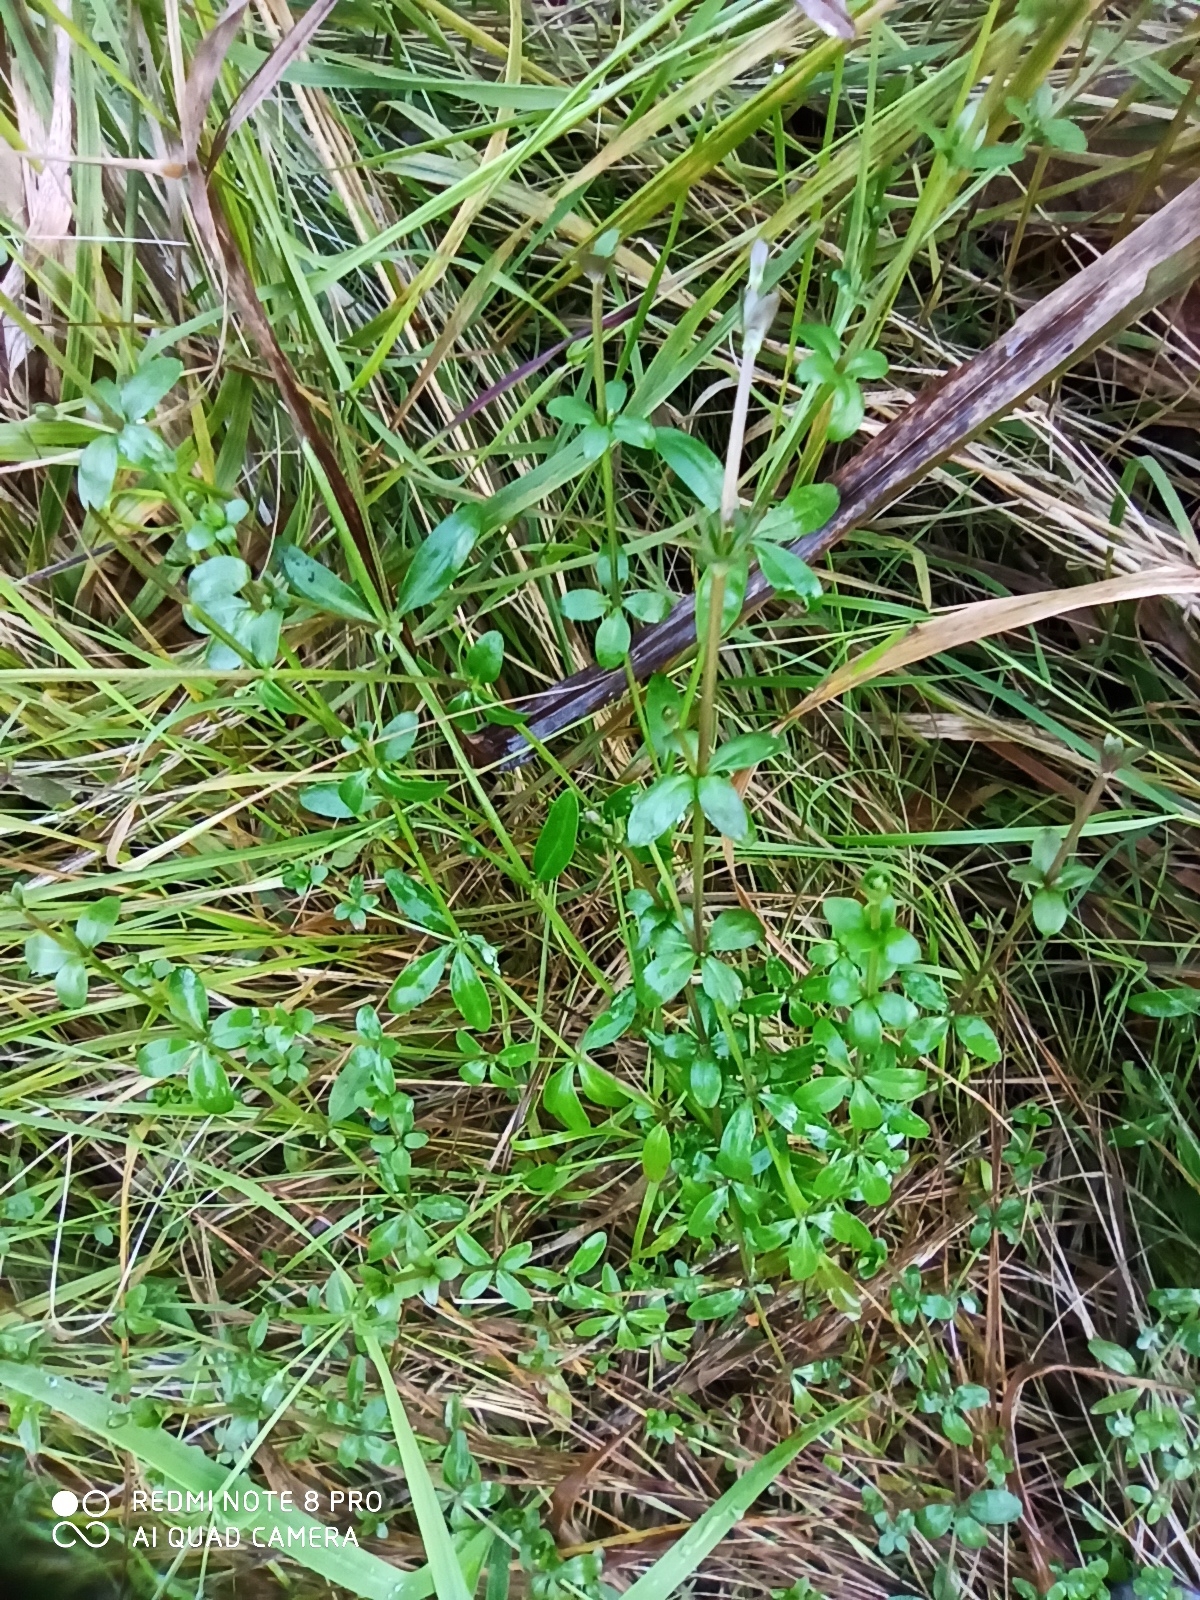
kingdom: Plantae
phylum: Tracheophyta
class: Magnoliopsida
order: Gentianales
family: Rubiaceae
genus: Galium
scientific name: Galium palustre
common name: Common marsh-bedstraw
